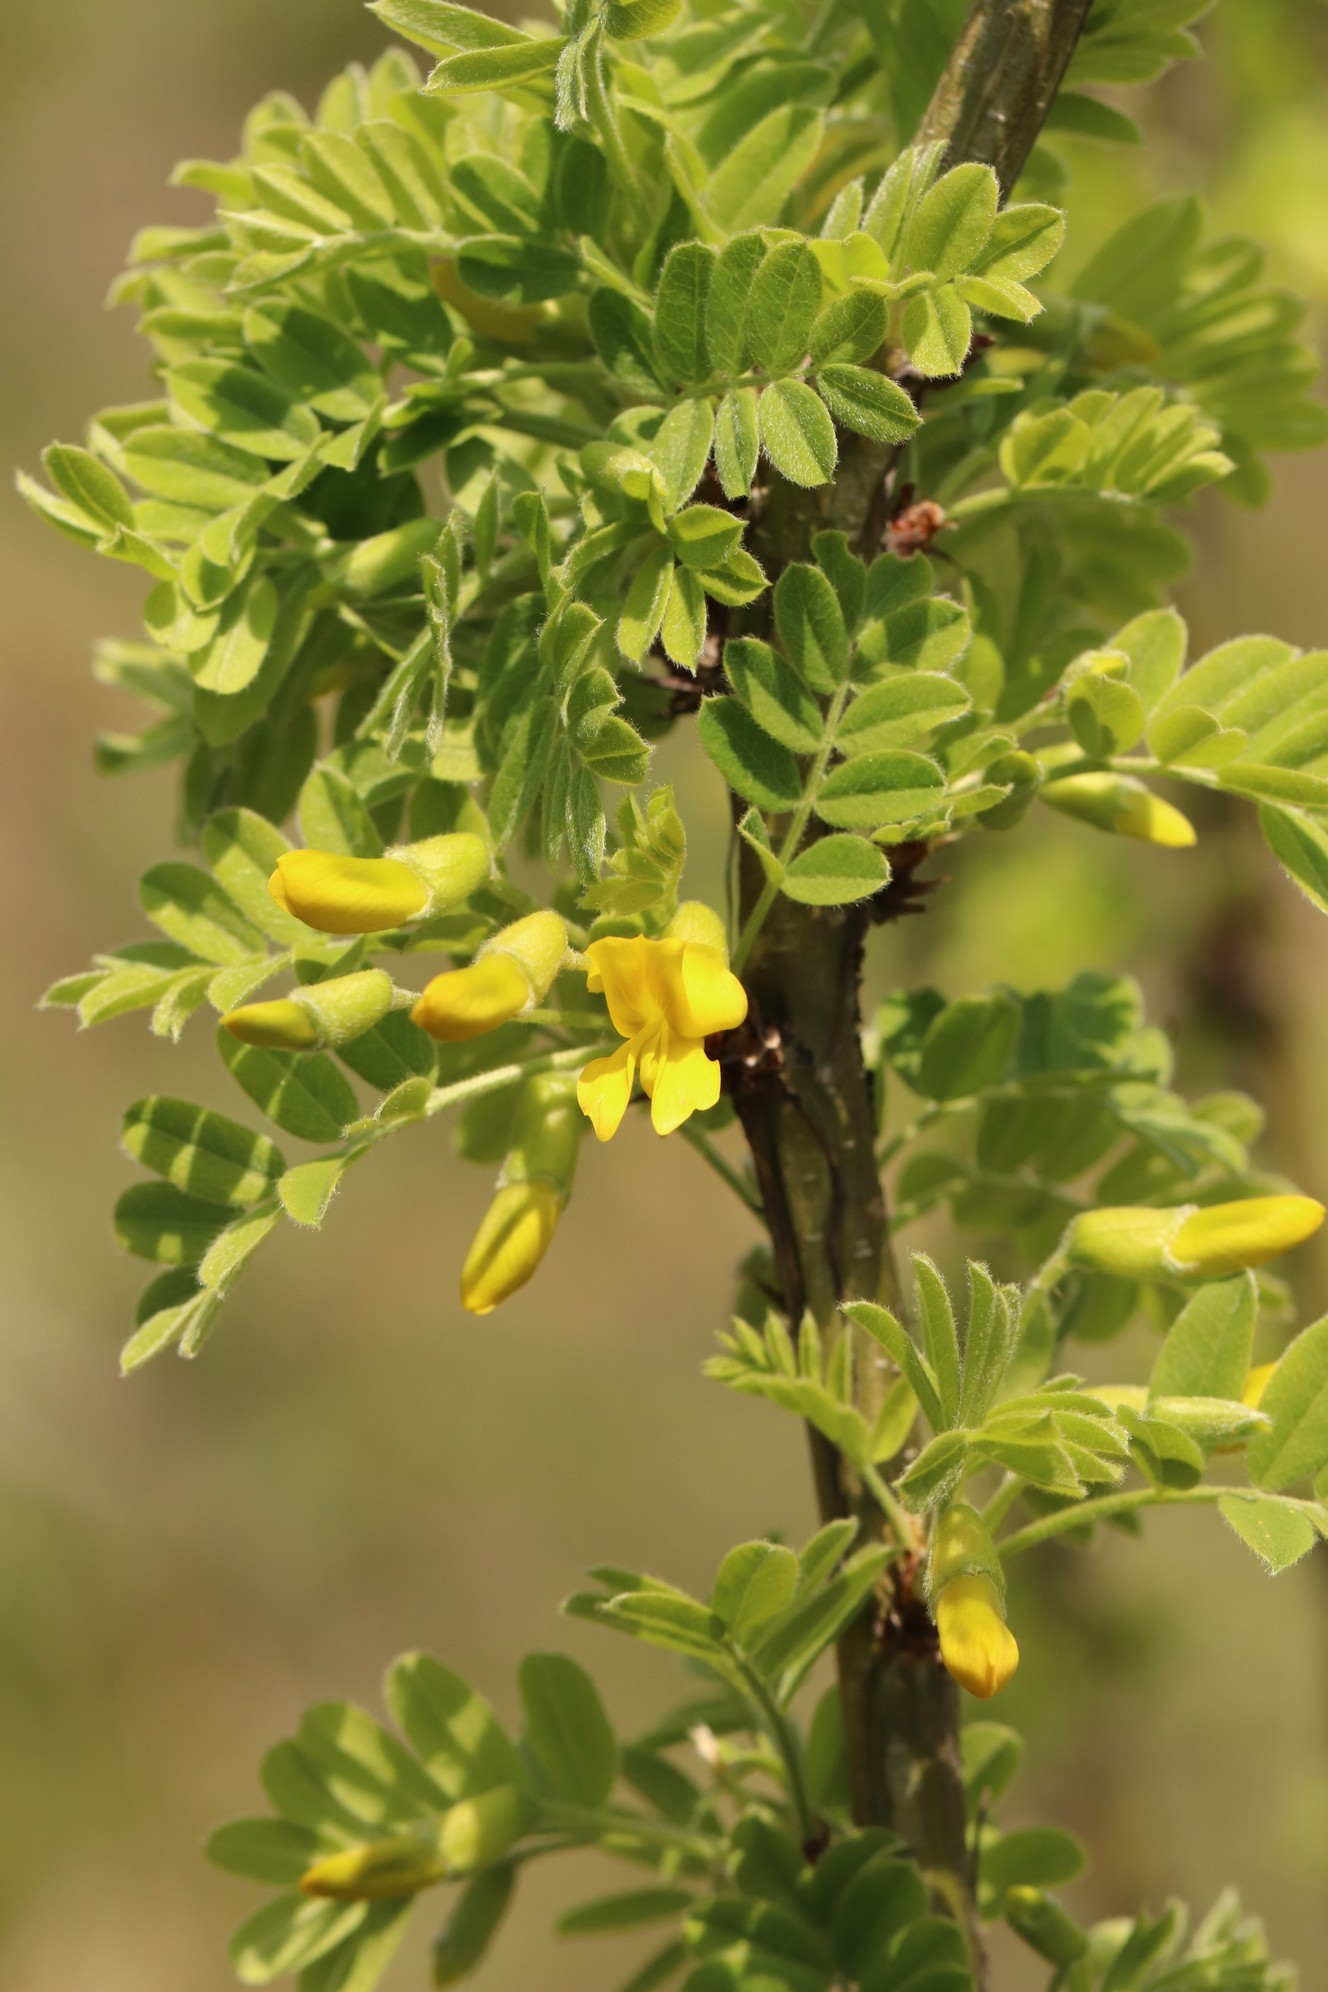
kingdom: Plantae
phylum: Tracheophyta
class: Magnoliopsida
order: Fabales
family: Fabaceae
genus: Caragana
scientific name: Caragana arborescens
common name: Siberian peashrub
